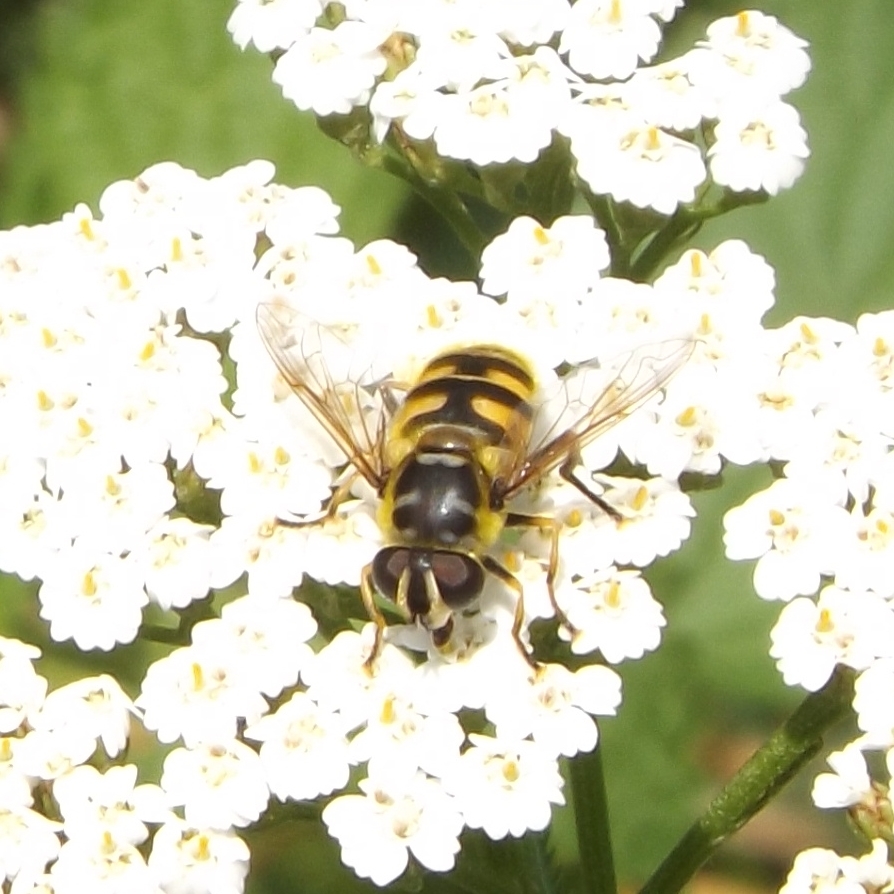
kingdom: Animalia
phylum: Arthropoda
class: Insecta
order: Diptera
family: Syrphidae
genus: Myathropa
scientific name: Myathropa florea
